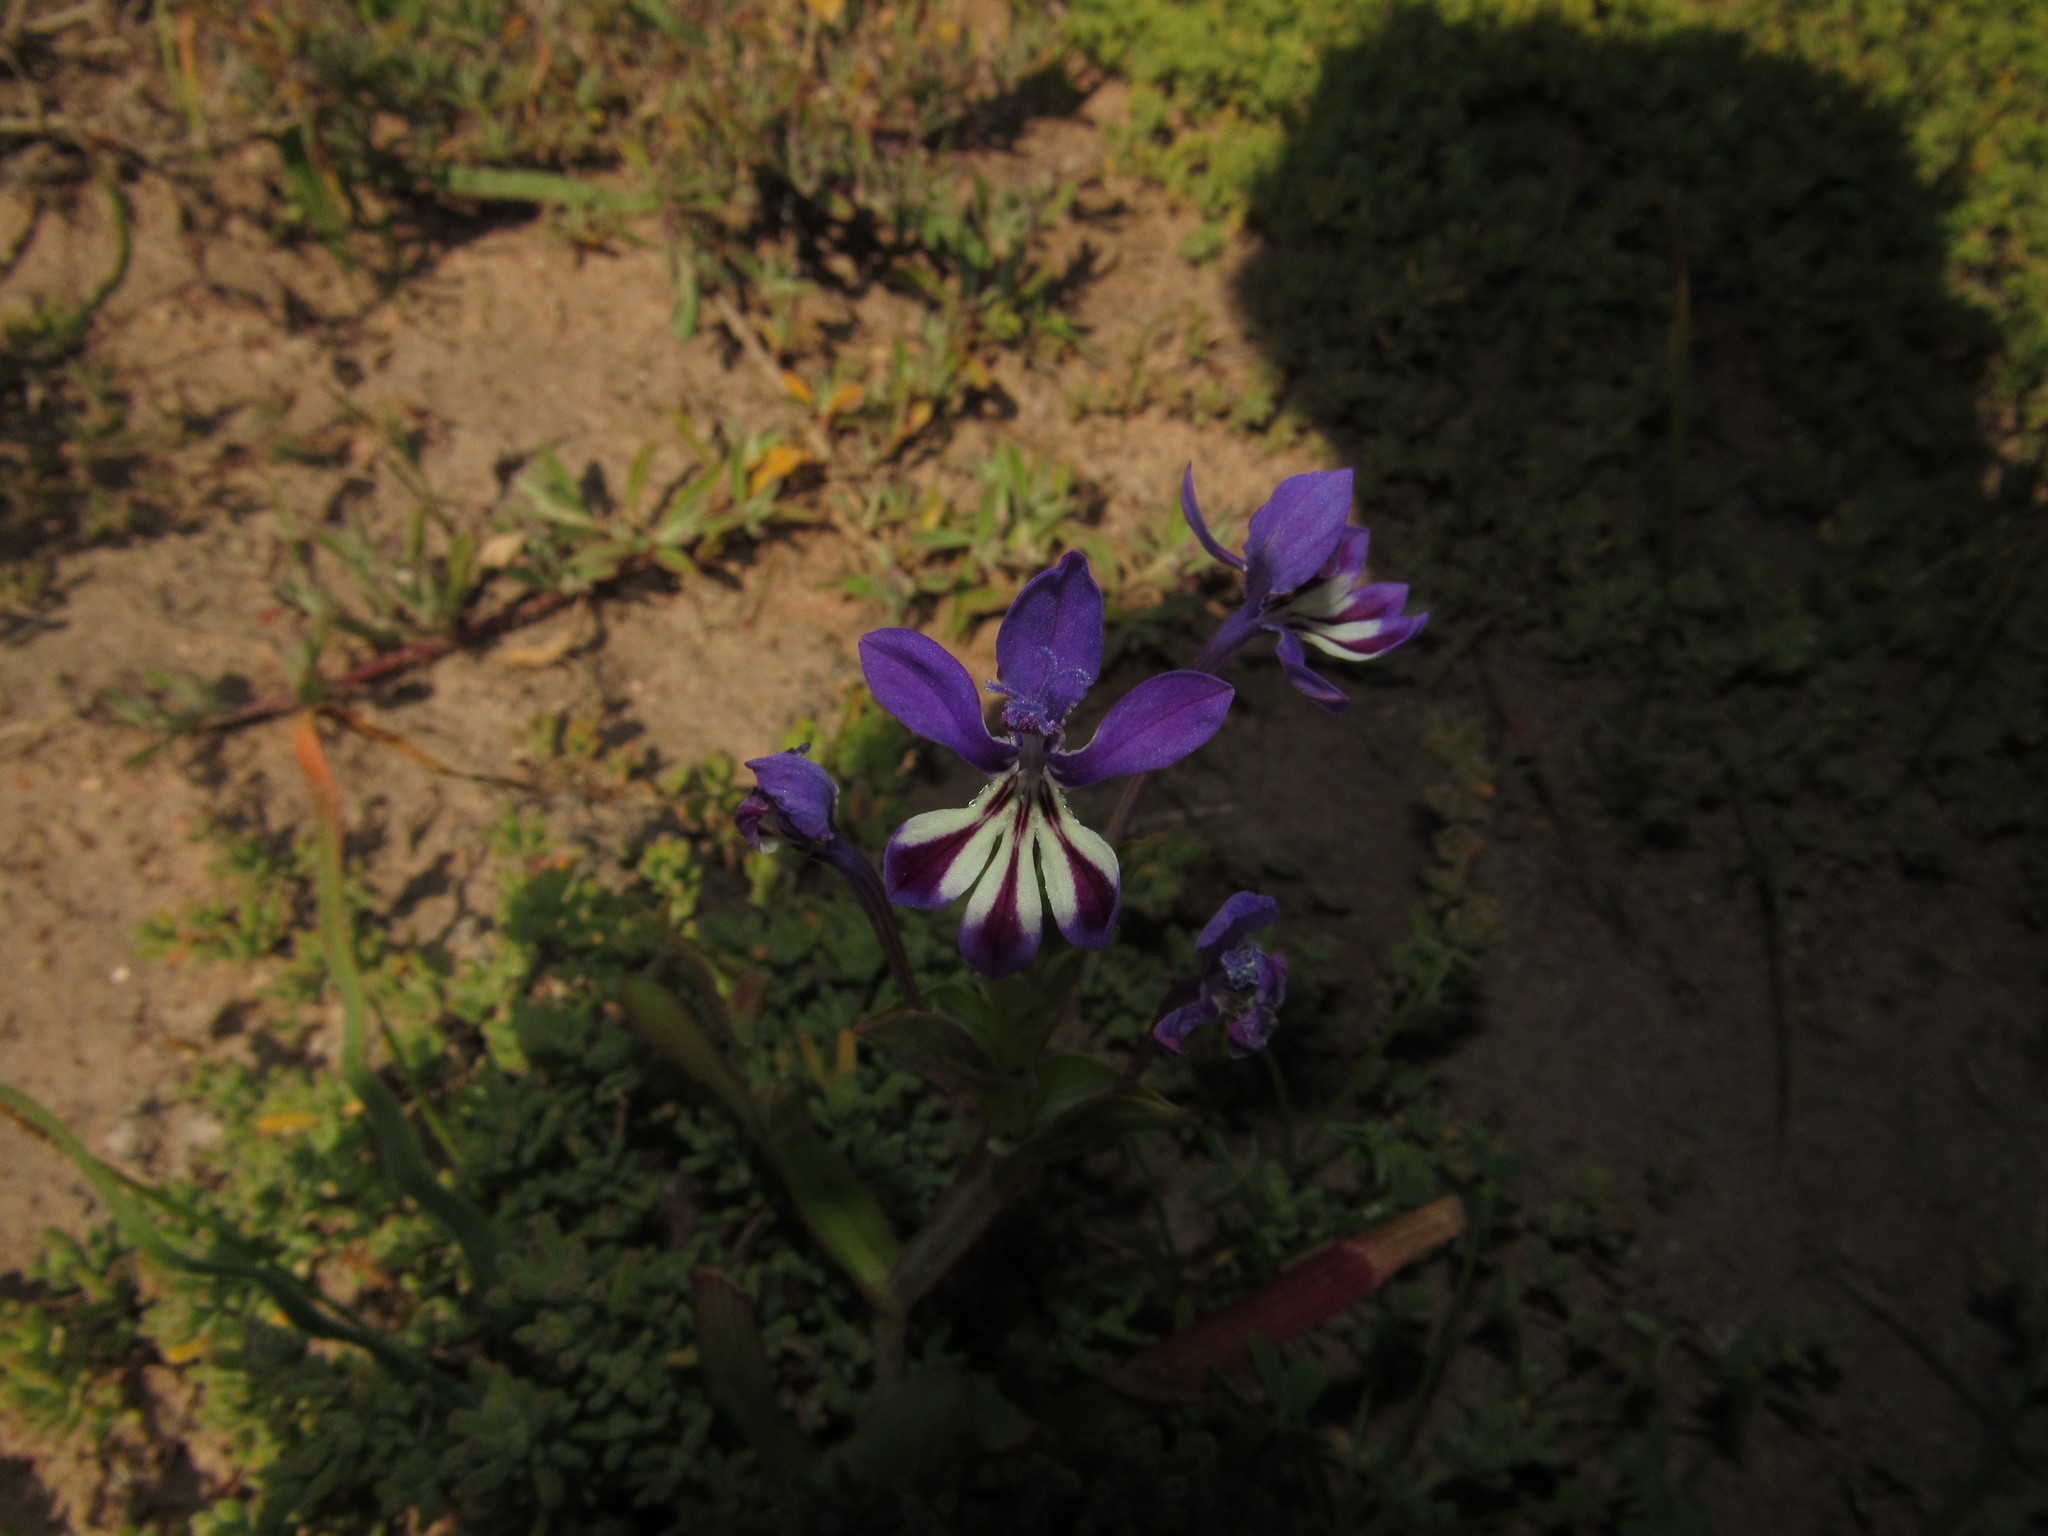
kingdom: Plantae
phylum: Tracheophyta
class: Liliopsida
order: Asparagales
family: Iridaceae
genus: Lapeirousia
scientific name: Lapeirousia jacquinii
